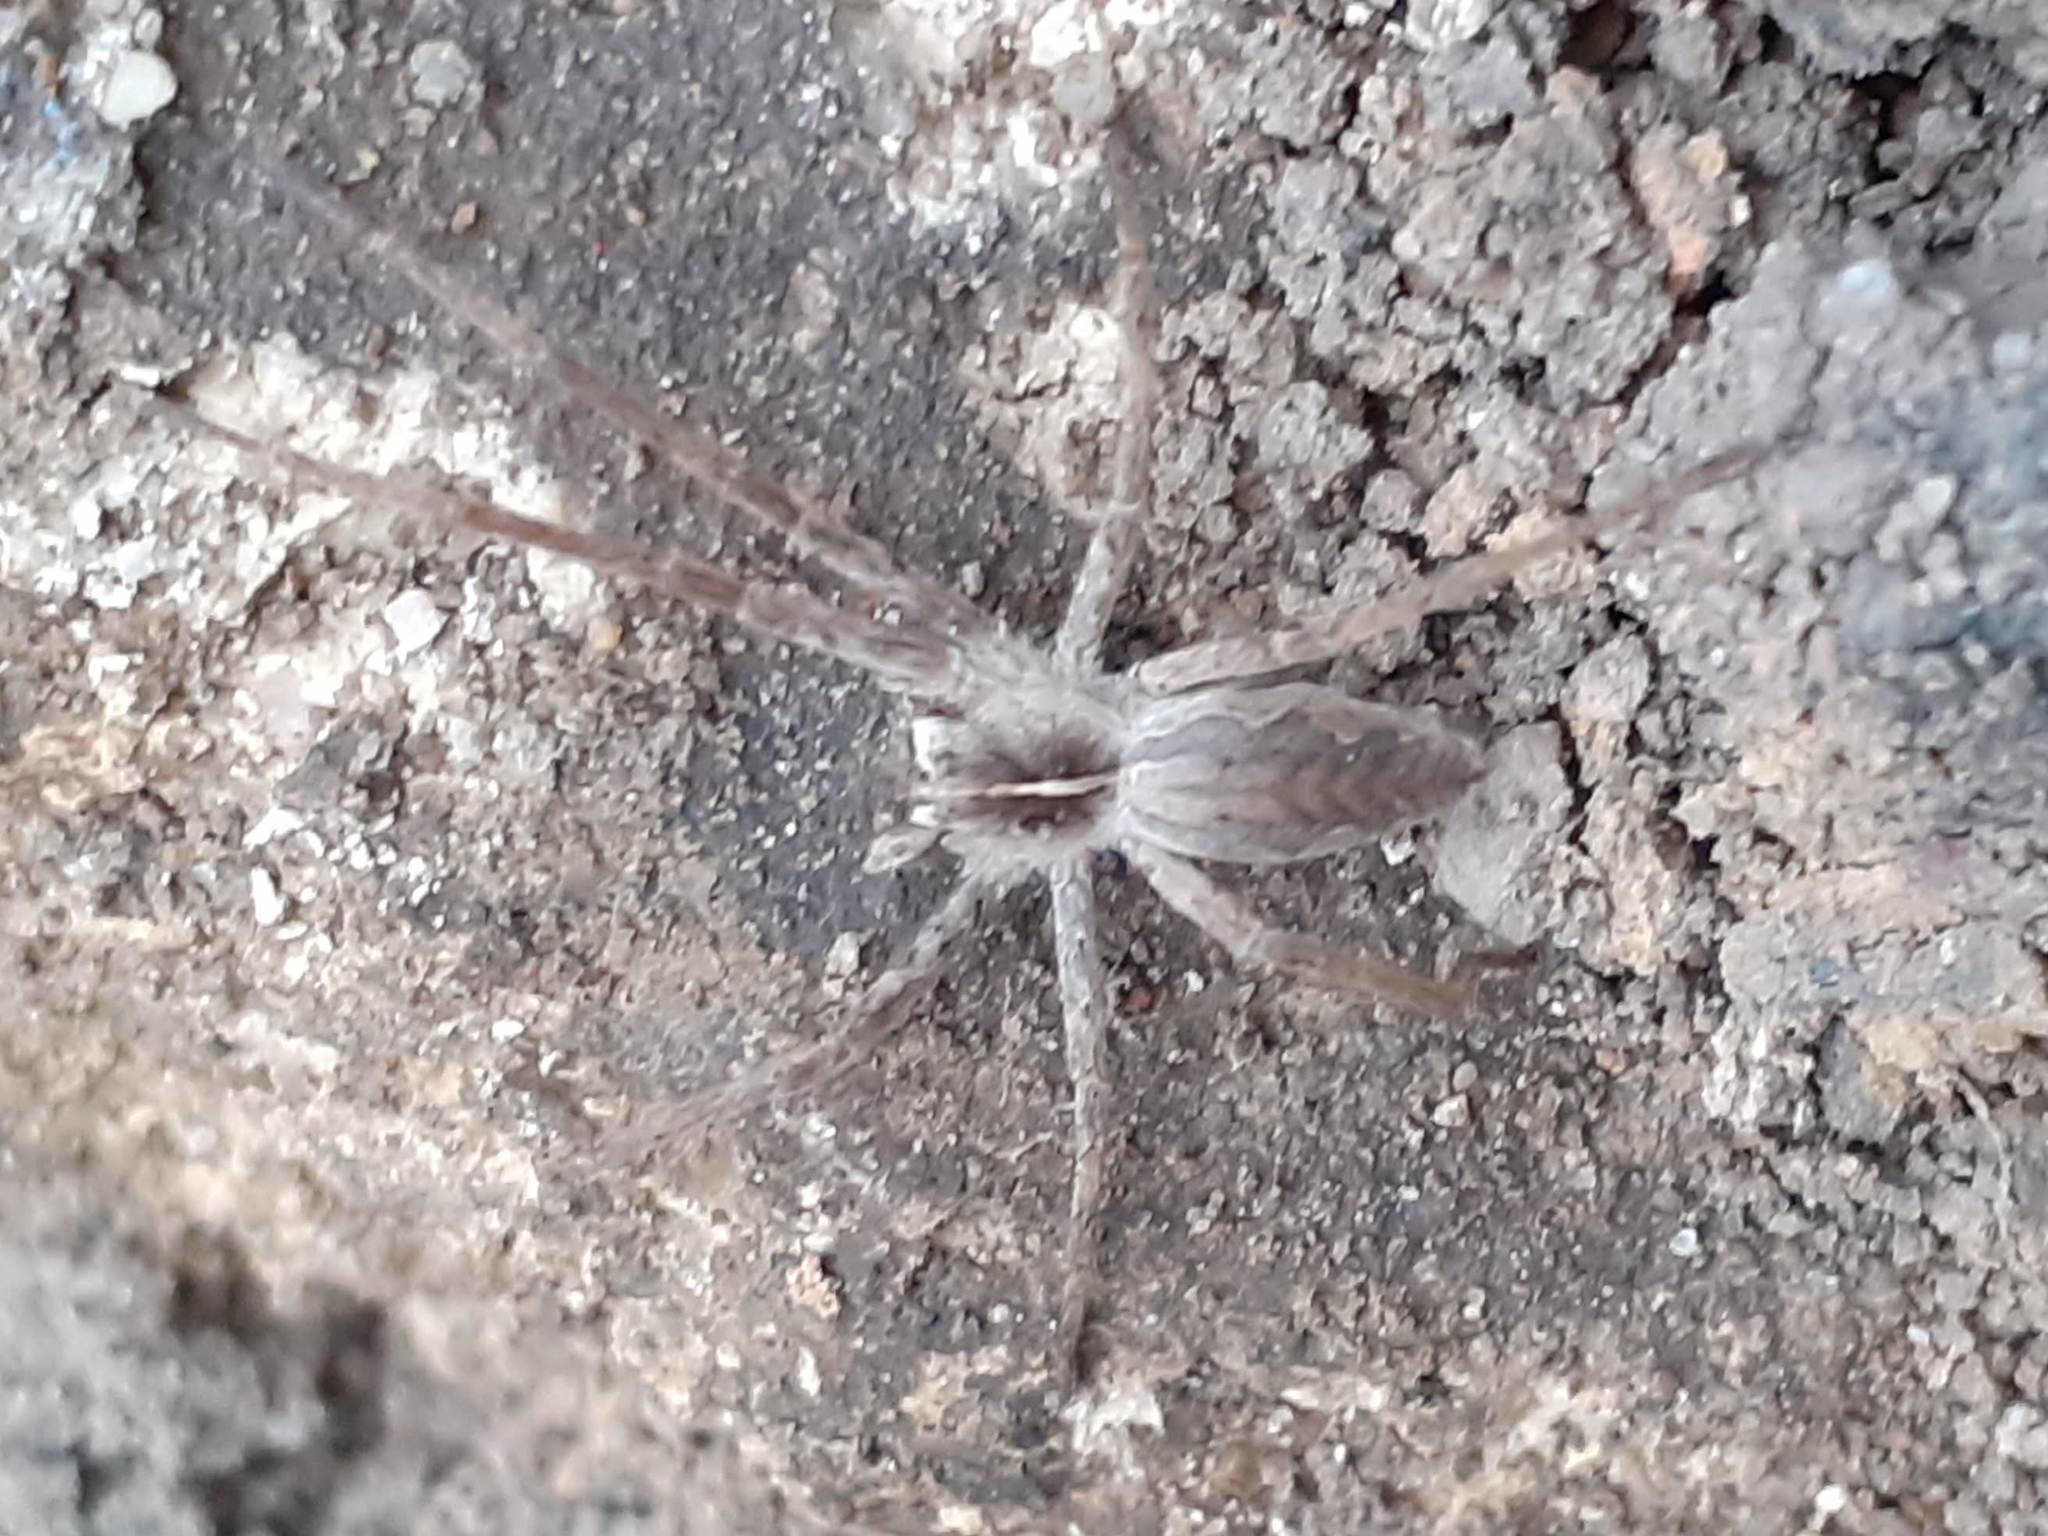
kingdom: Animalia
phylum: Arthropoda
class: Arachnida
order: Araneae
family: Pisauridae
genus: Pisaura
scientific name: Pisaura mirabilis
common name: Tent spider
